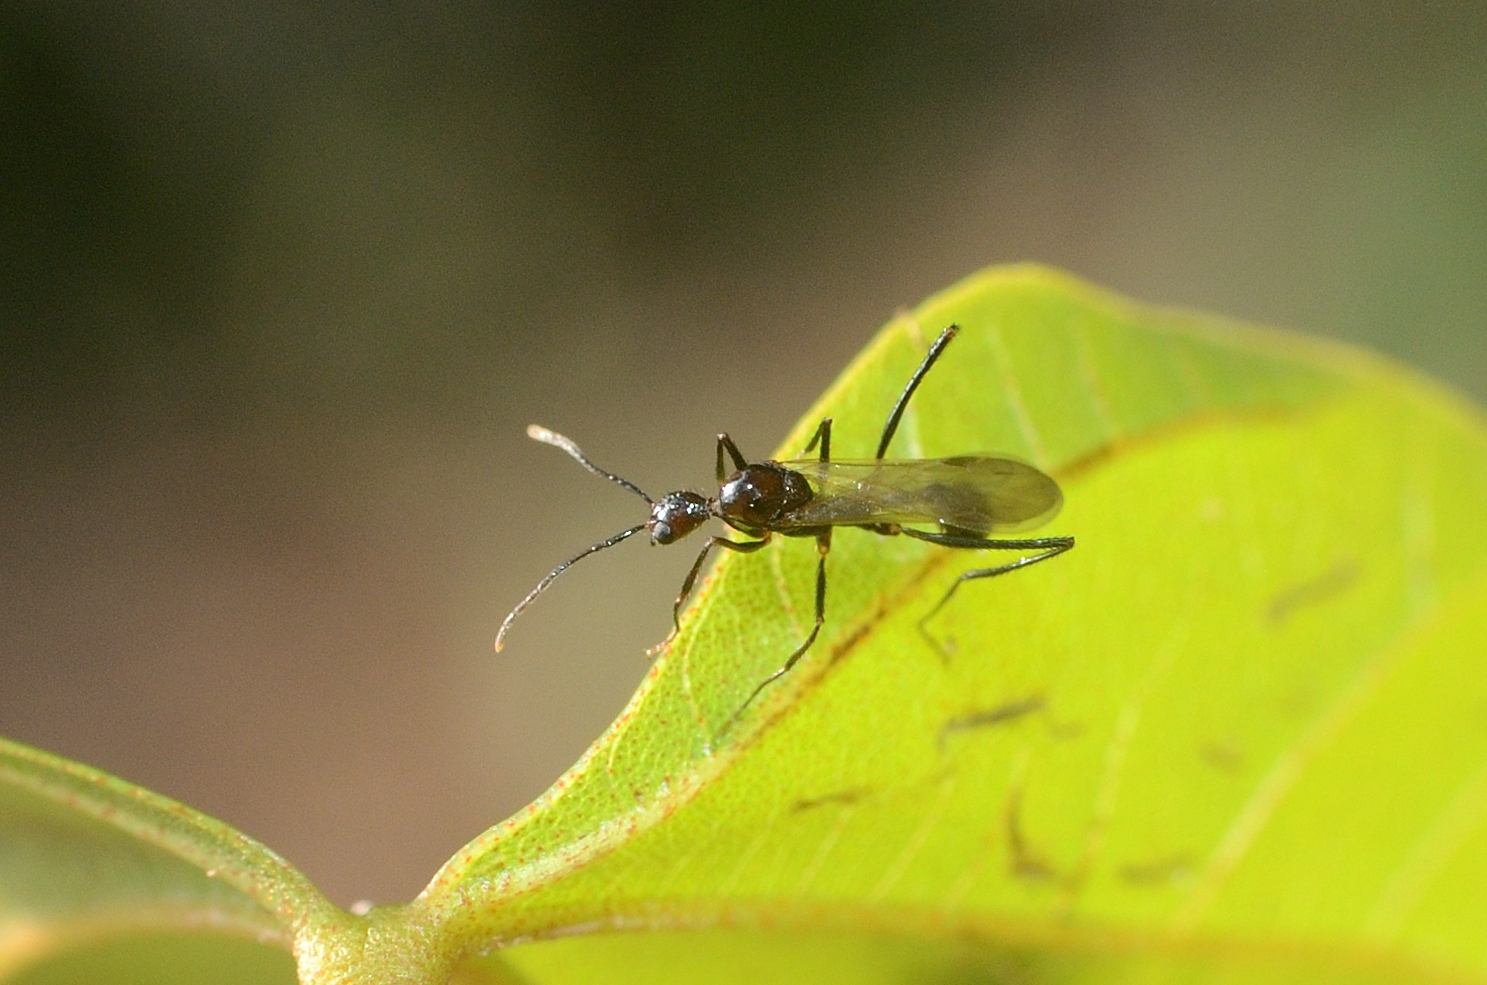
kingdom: Animalia
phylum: Arthropoda
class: Insecta
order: Hymenoptera
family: Formicidae
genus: Aphaenogaster
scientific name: Aphaenogaster beccarii
